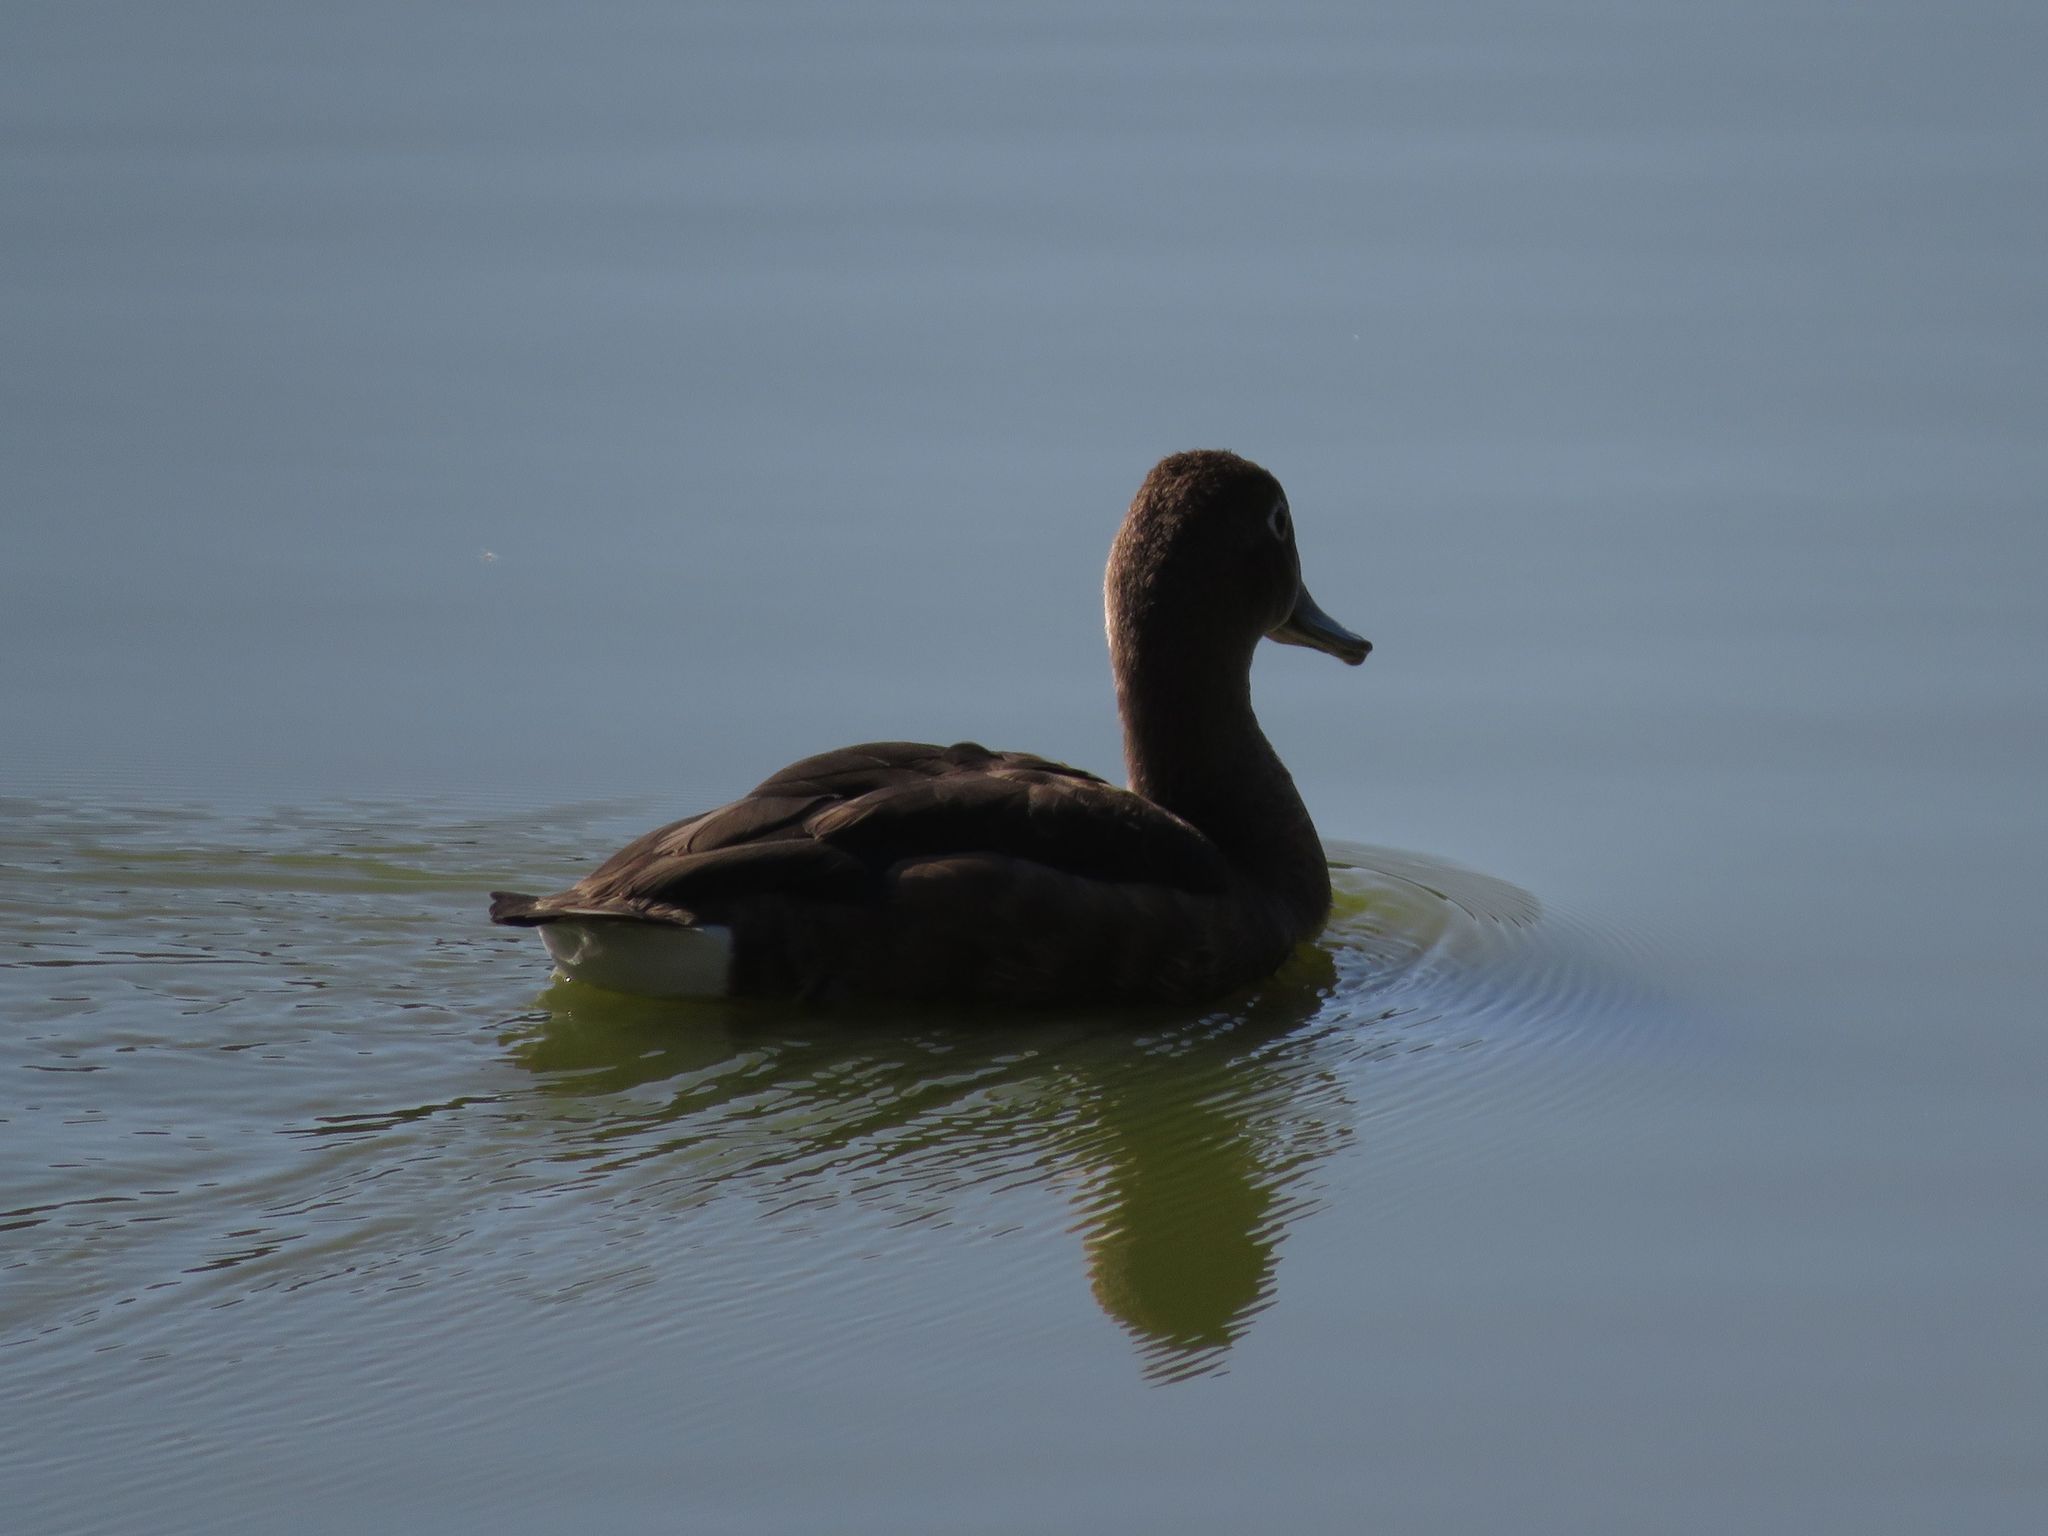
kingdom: Animalia
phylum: Chordata
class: Aves
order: Anseriformes
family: Anatidae
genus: Netta
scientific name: Netta peposaca
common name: Rosy-billed pochard
